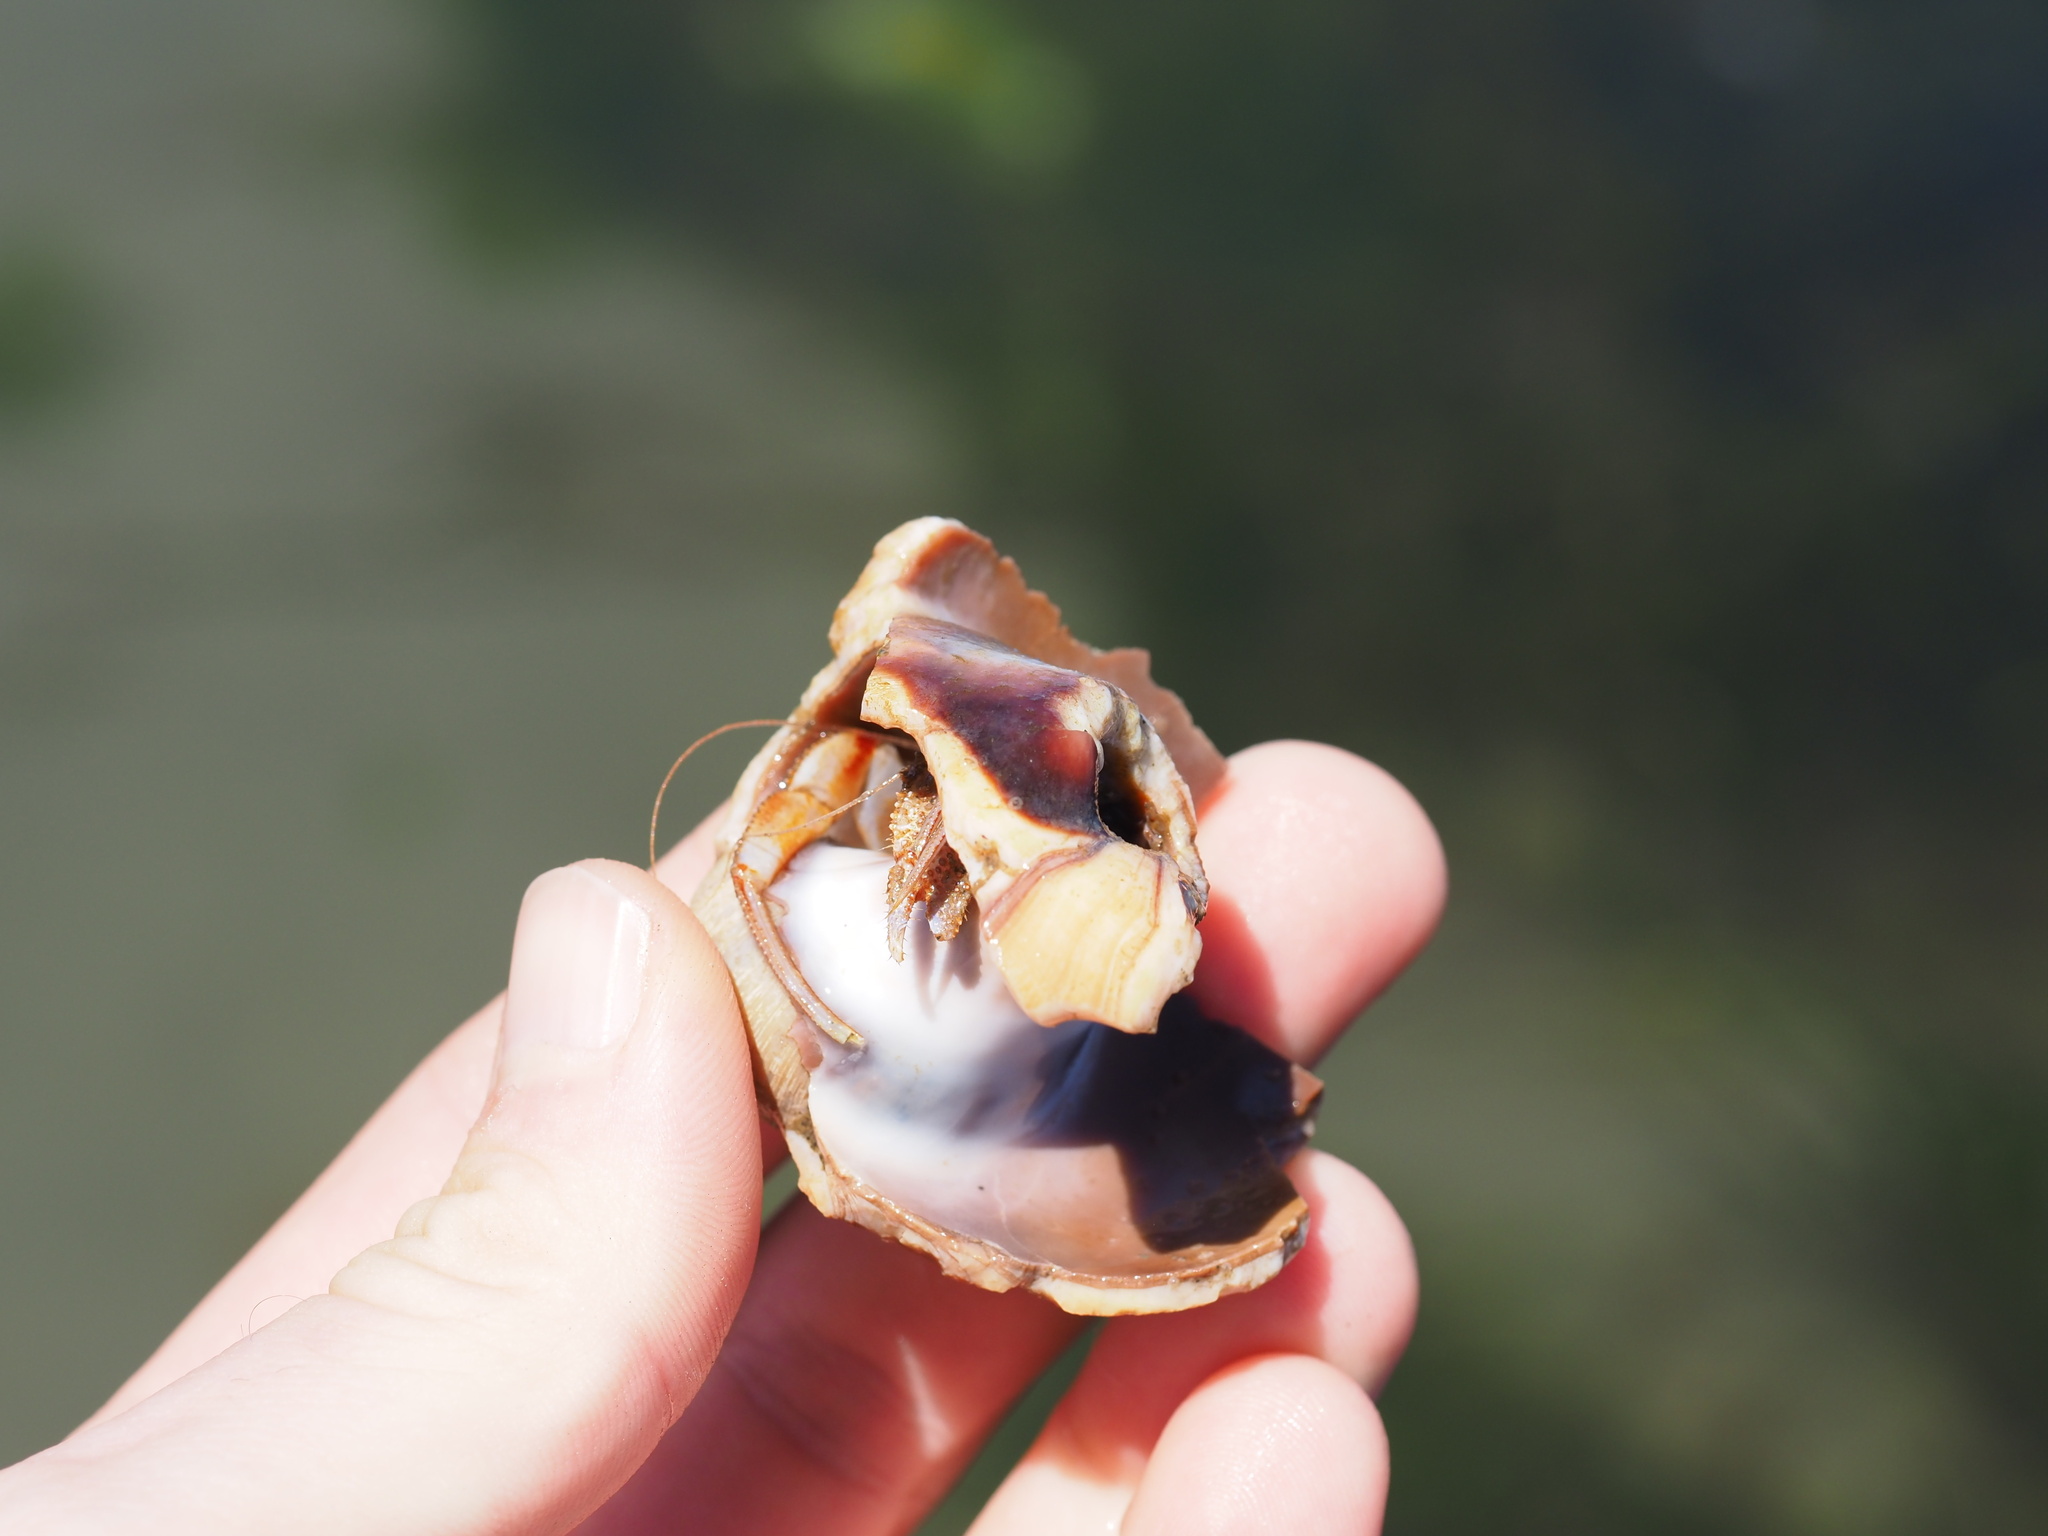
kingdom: Animalia
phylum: Arthropoda
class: Malacostraca
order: Decapoda
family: Paguridae
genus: Pagurus
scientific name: Pagurus armatus
